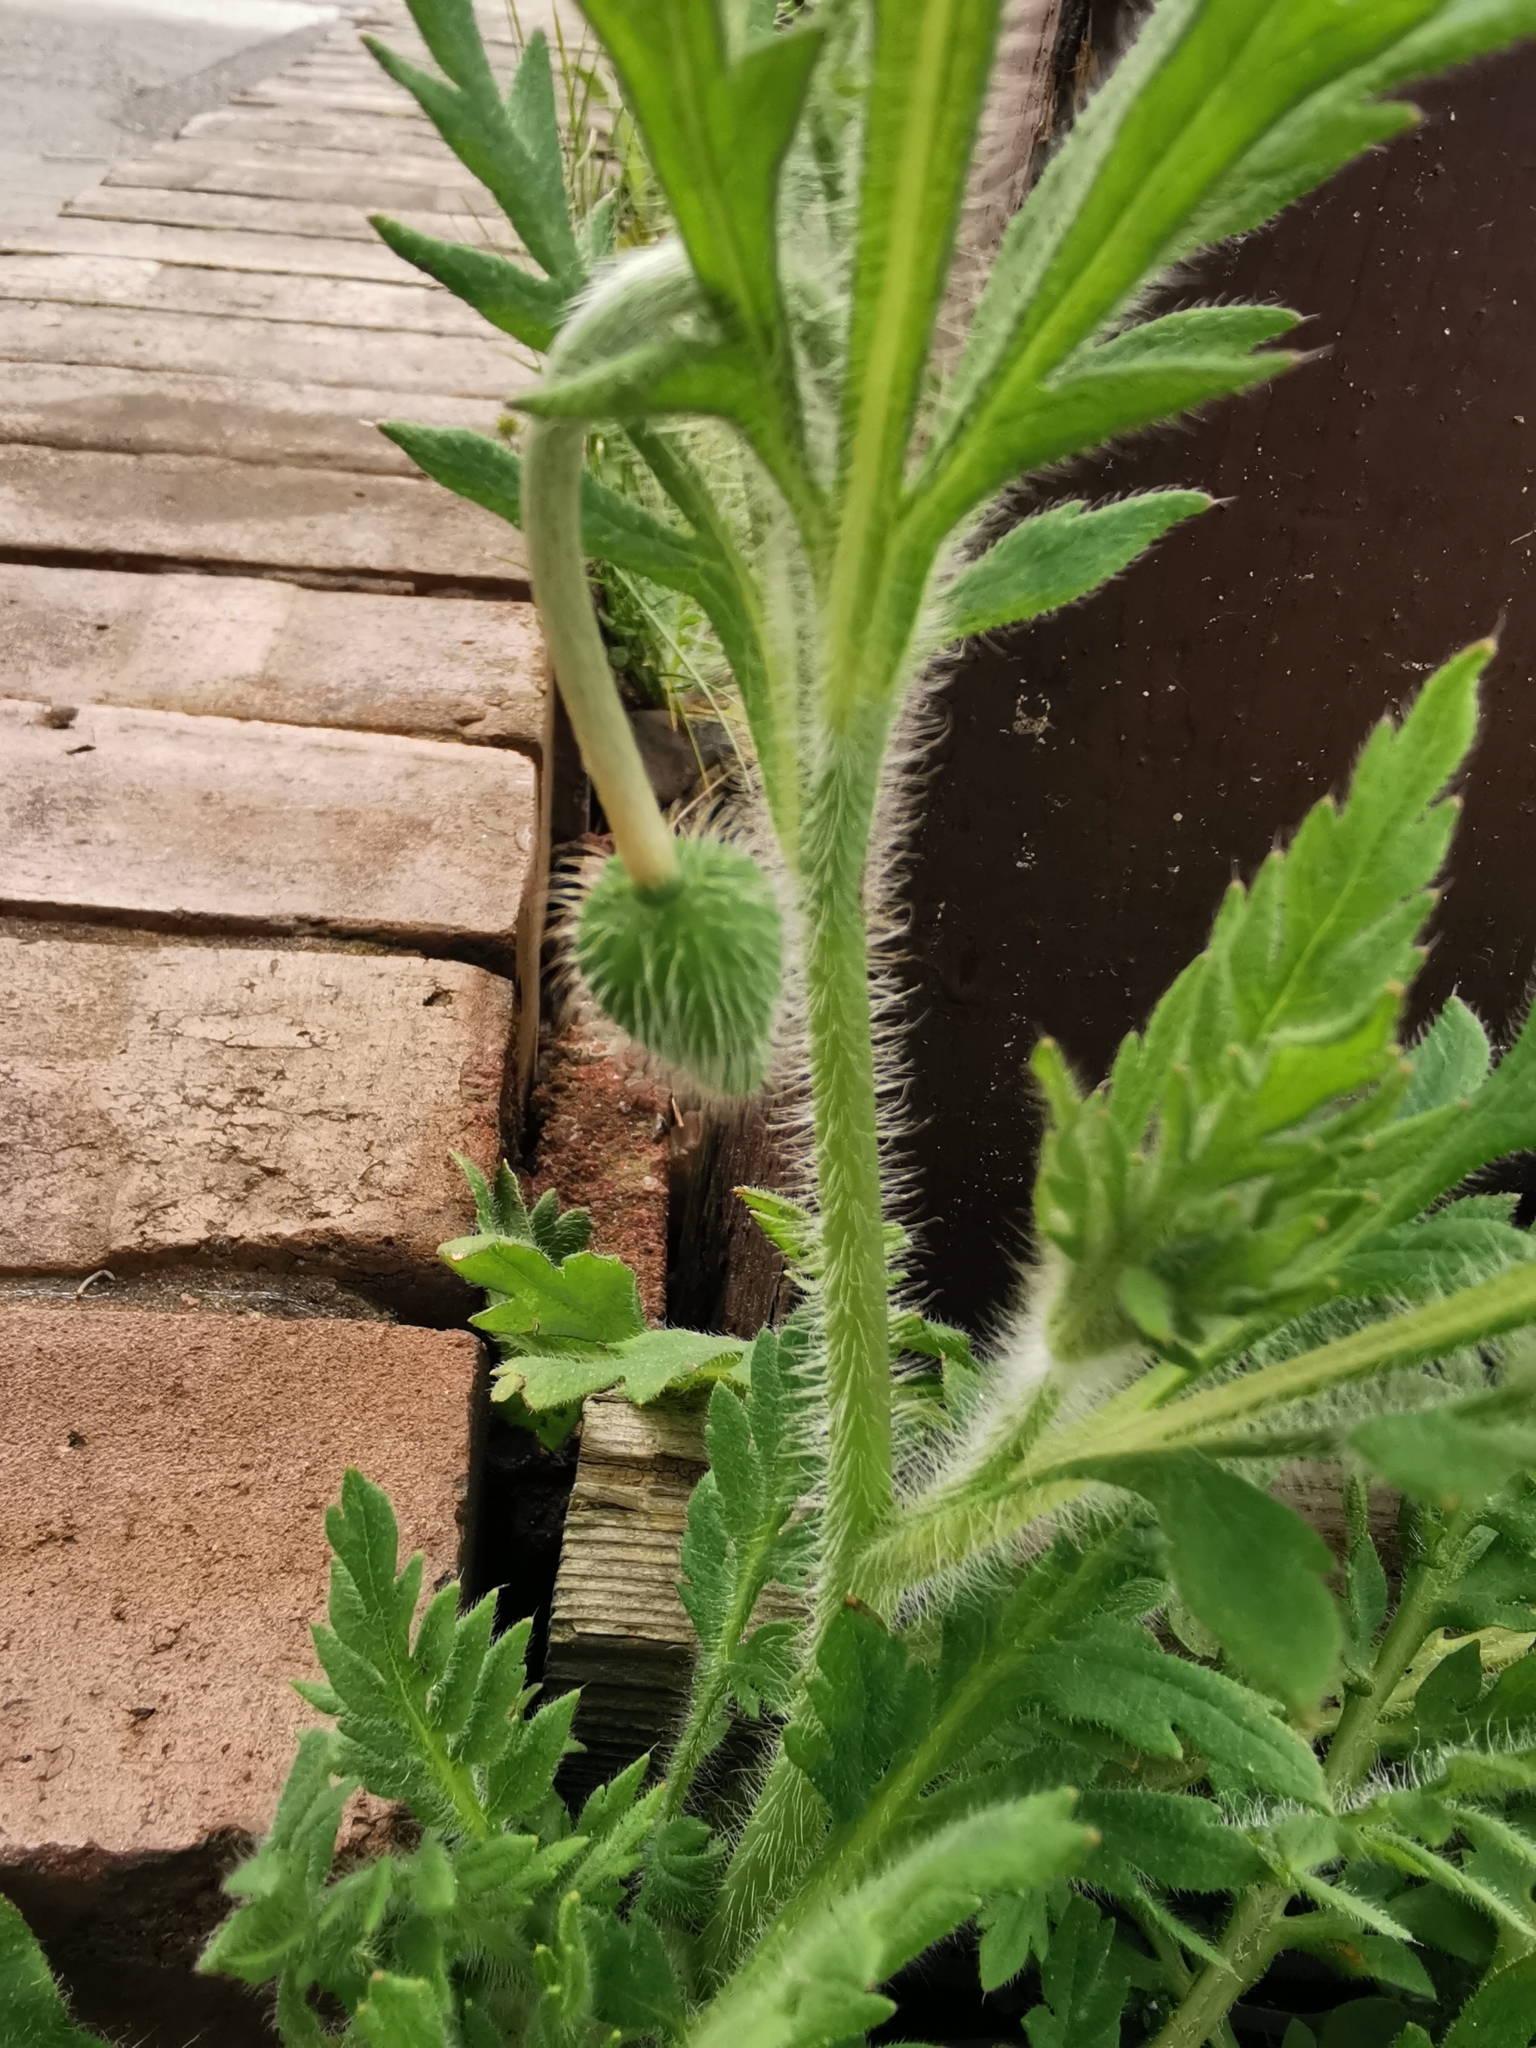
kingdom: Plantae
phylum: Tracheophyta
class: Magnoliopsida
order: Ranunculales
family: Papaveraceae
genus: Papaver
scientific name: Papaver rhoeas
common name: Corn poppy
